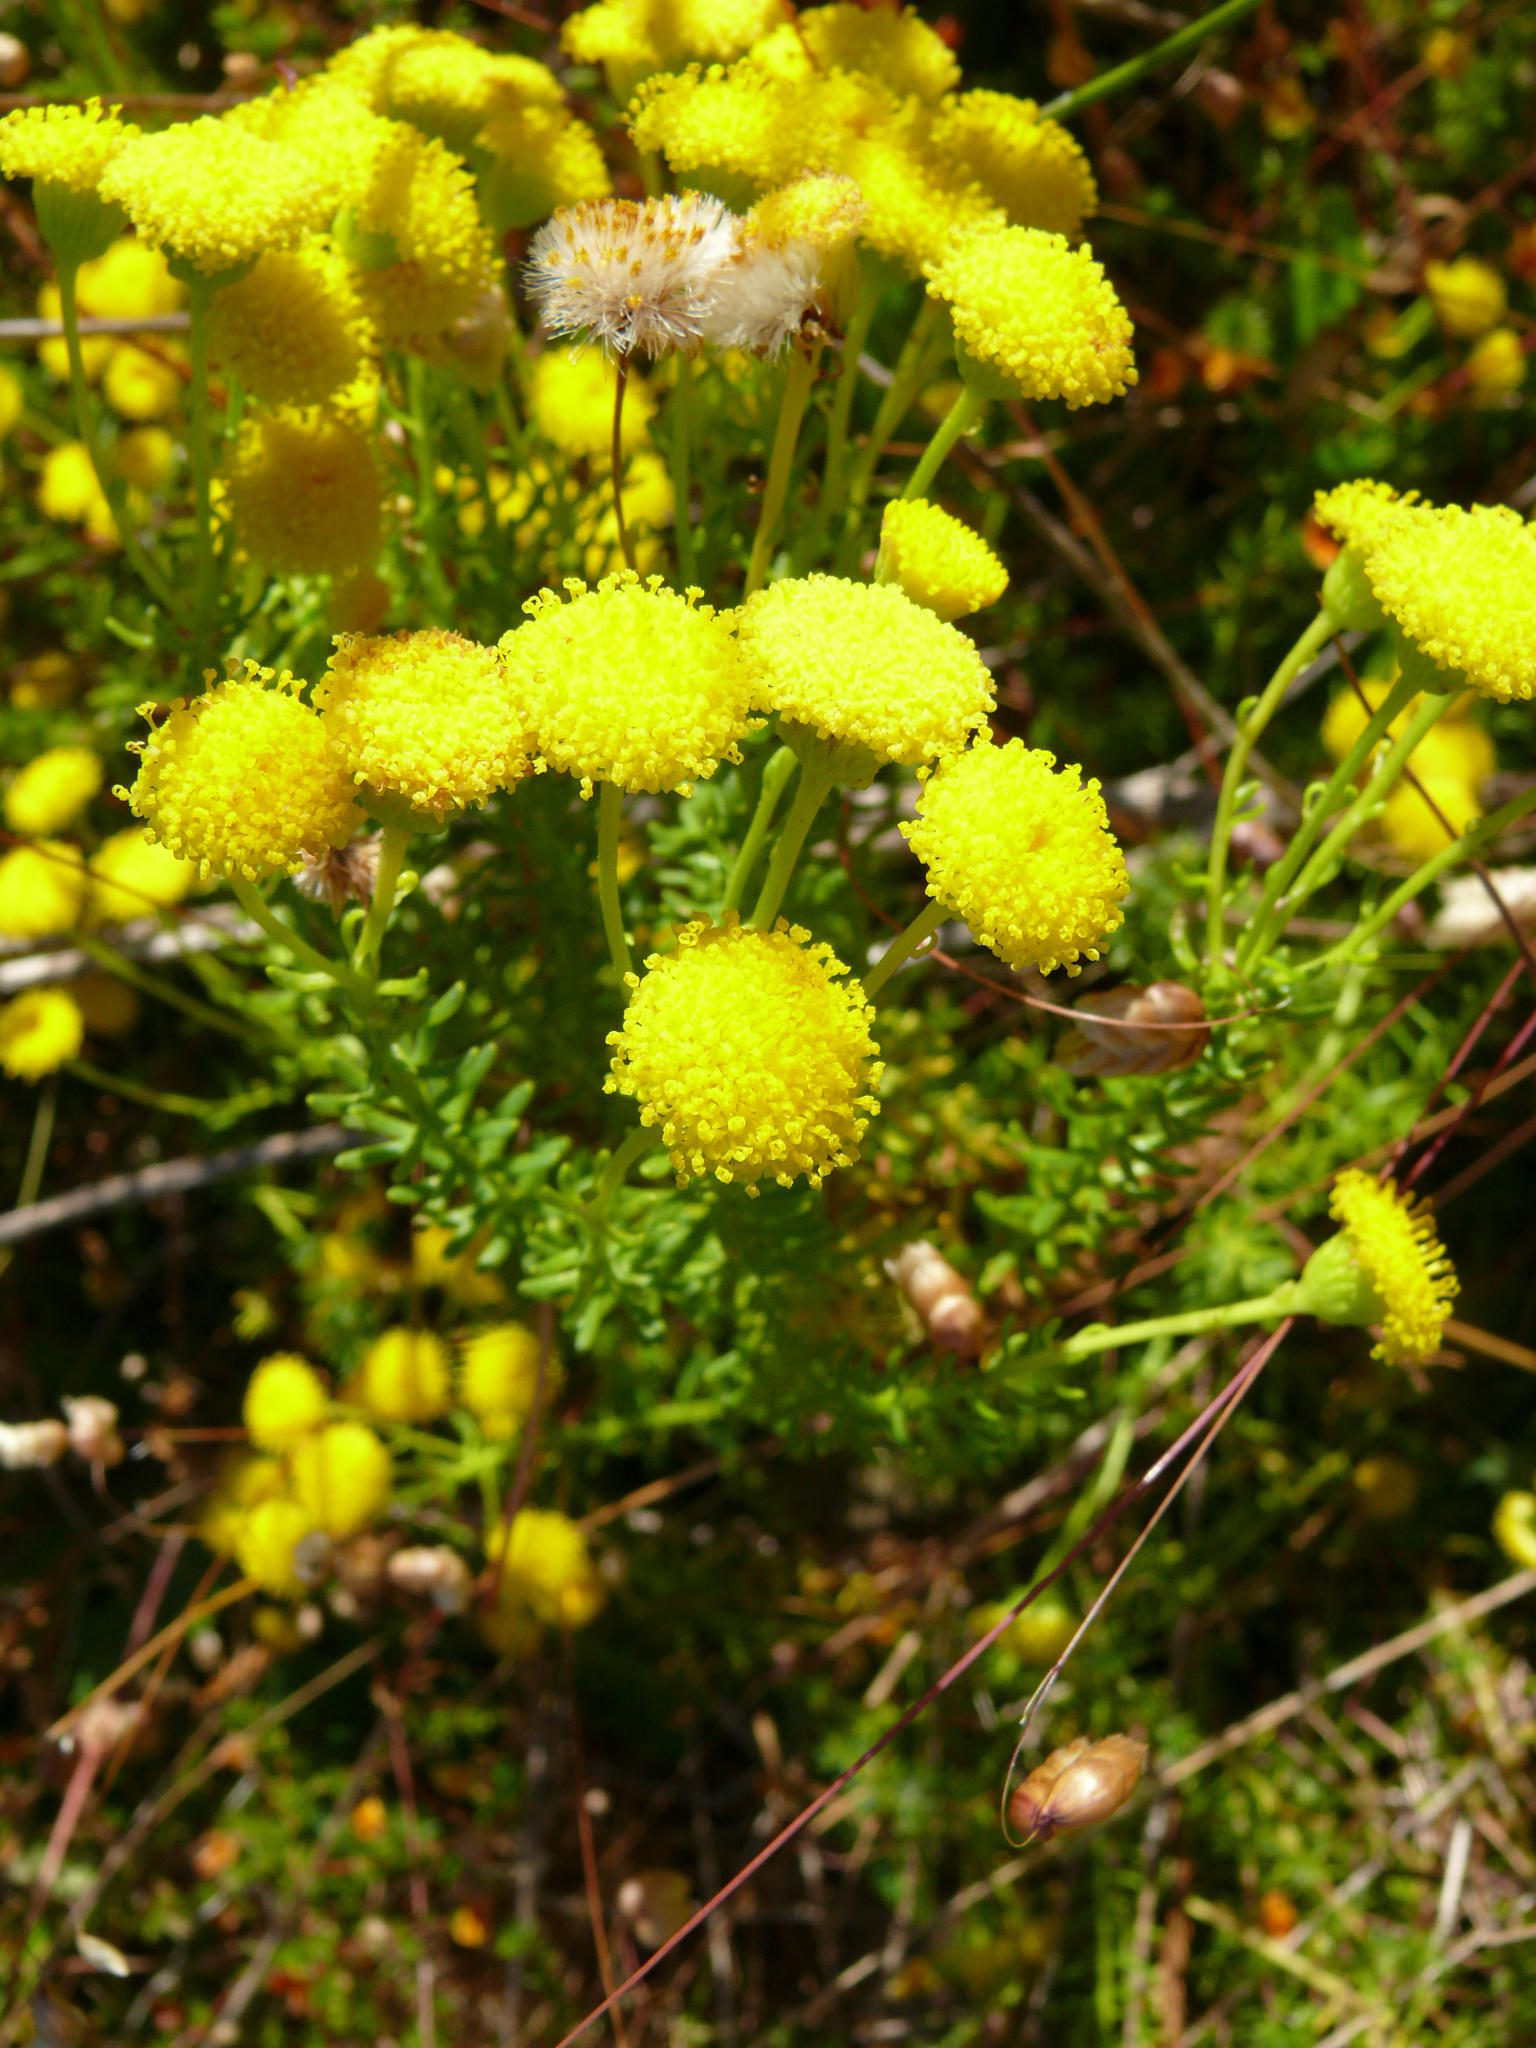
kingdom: Plantae
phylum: Tracheophyta
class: Magnoliopsida
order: Asterales
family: Asteraceae
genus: Chrysocoma
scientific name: Chrysocoma cernua
